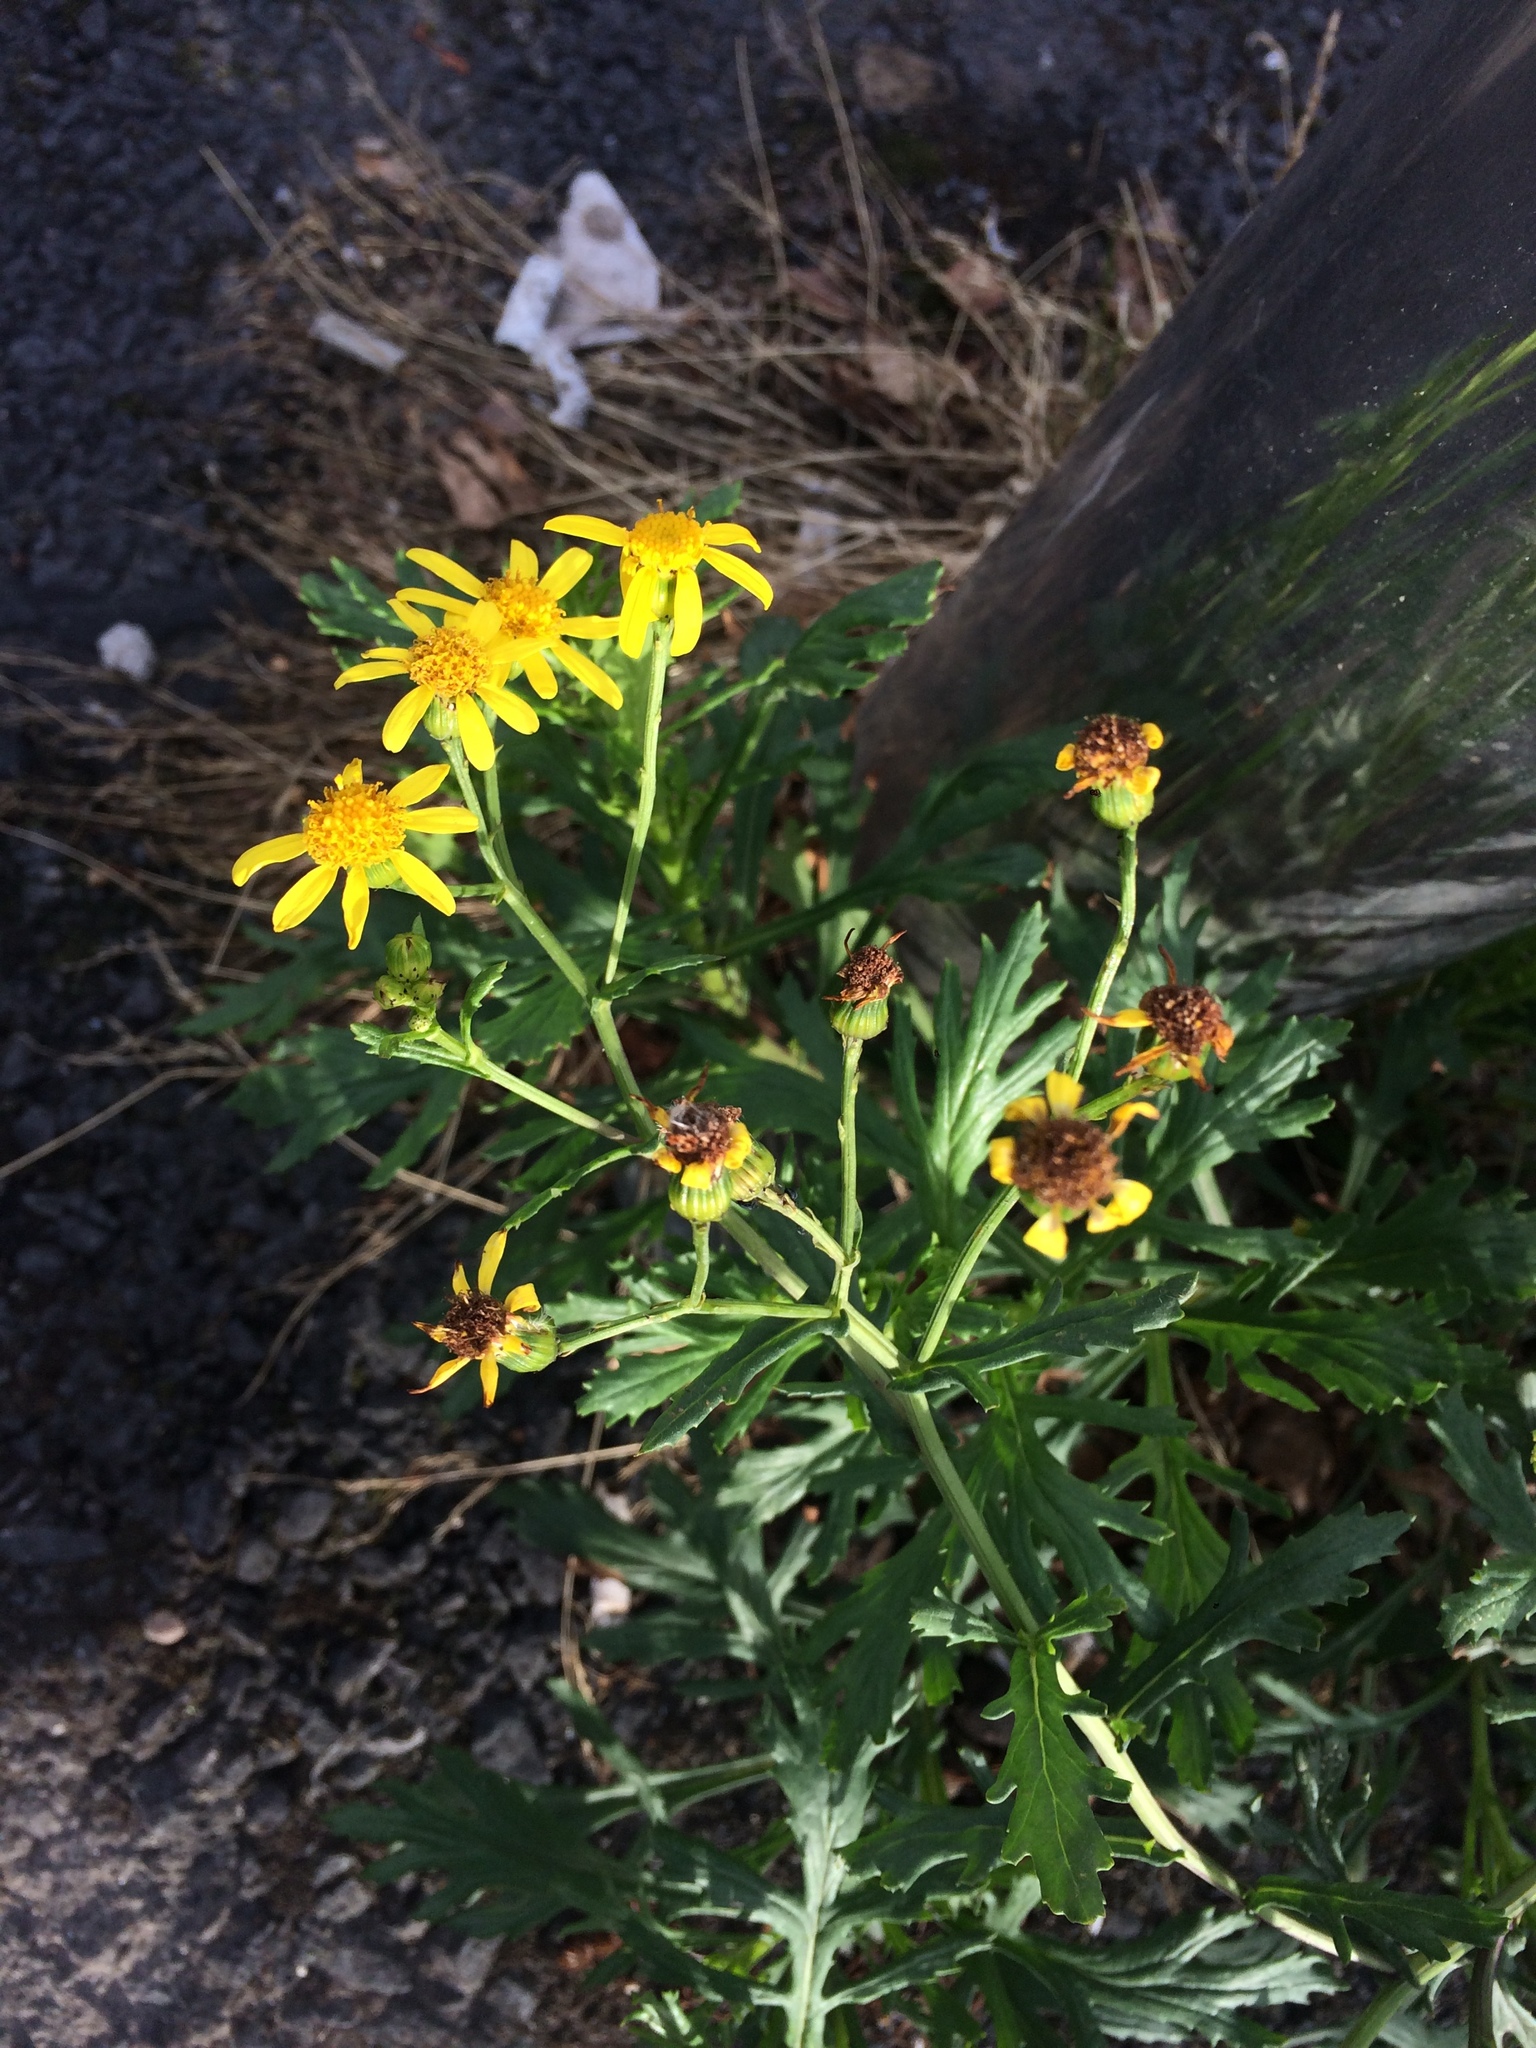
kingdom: Plantae
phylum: Tracheophyta
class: Magnoliopsida
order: Asterales
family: Asteraceae
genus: Senecio
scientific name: Senecio squalidus
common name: Oxford ragwort
